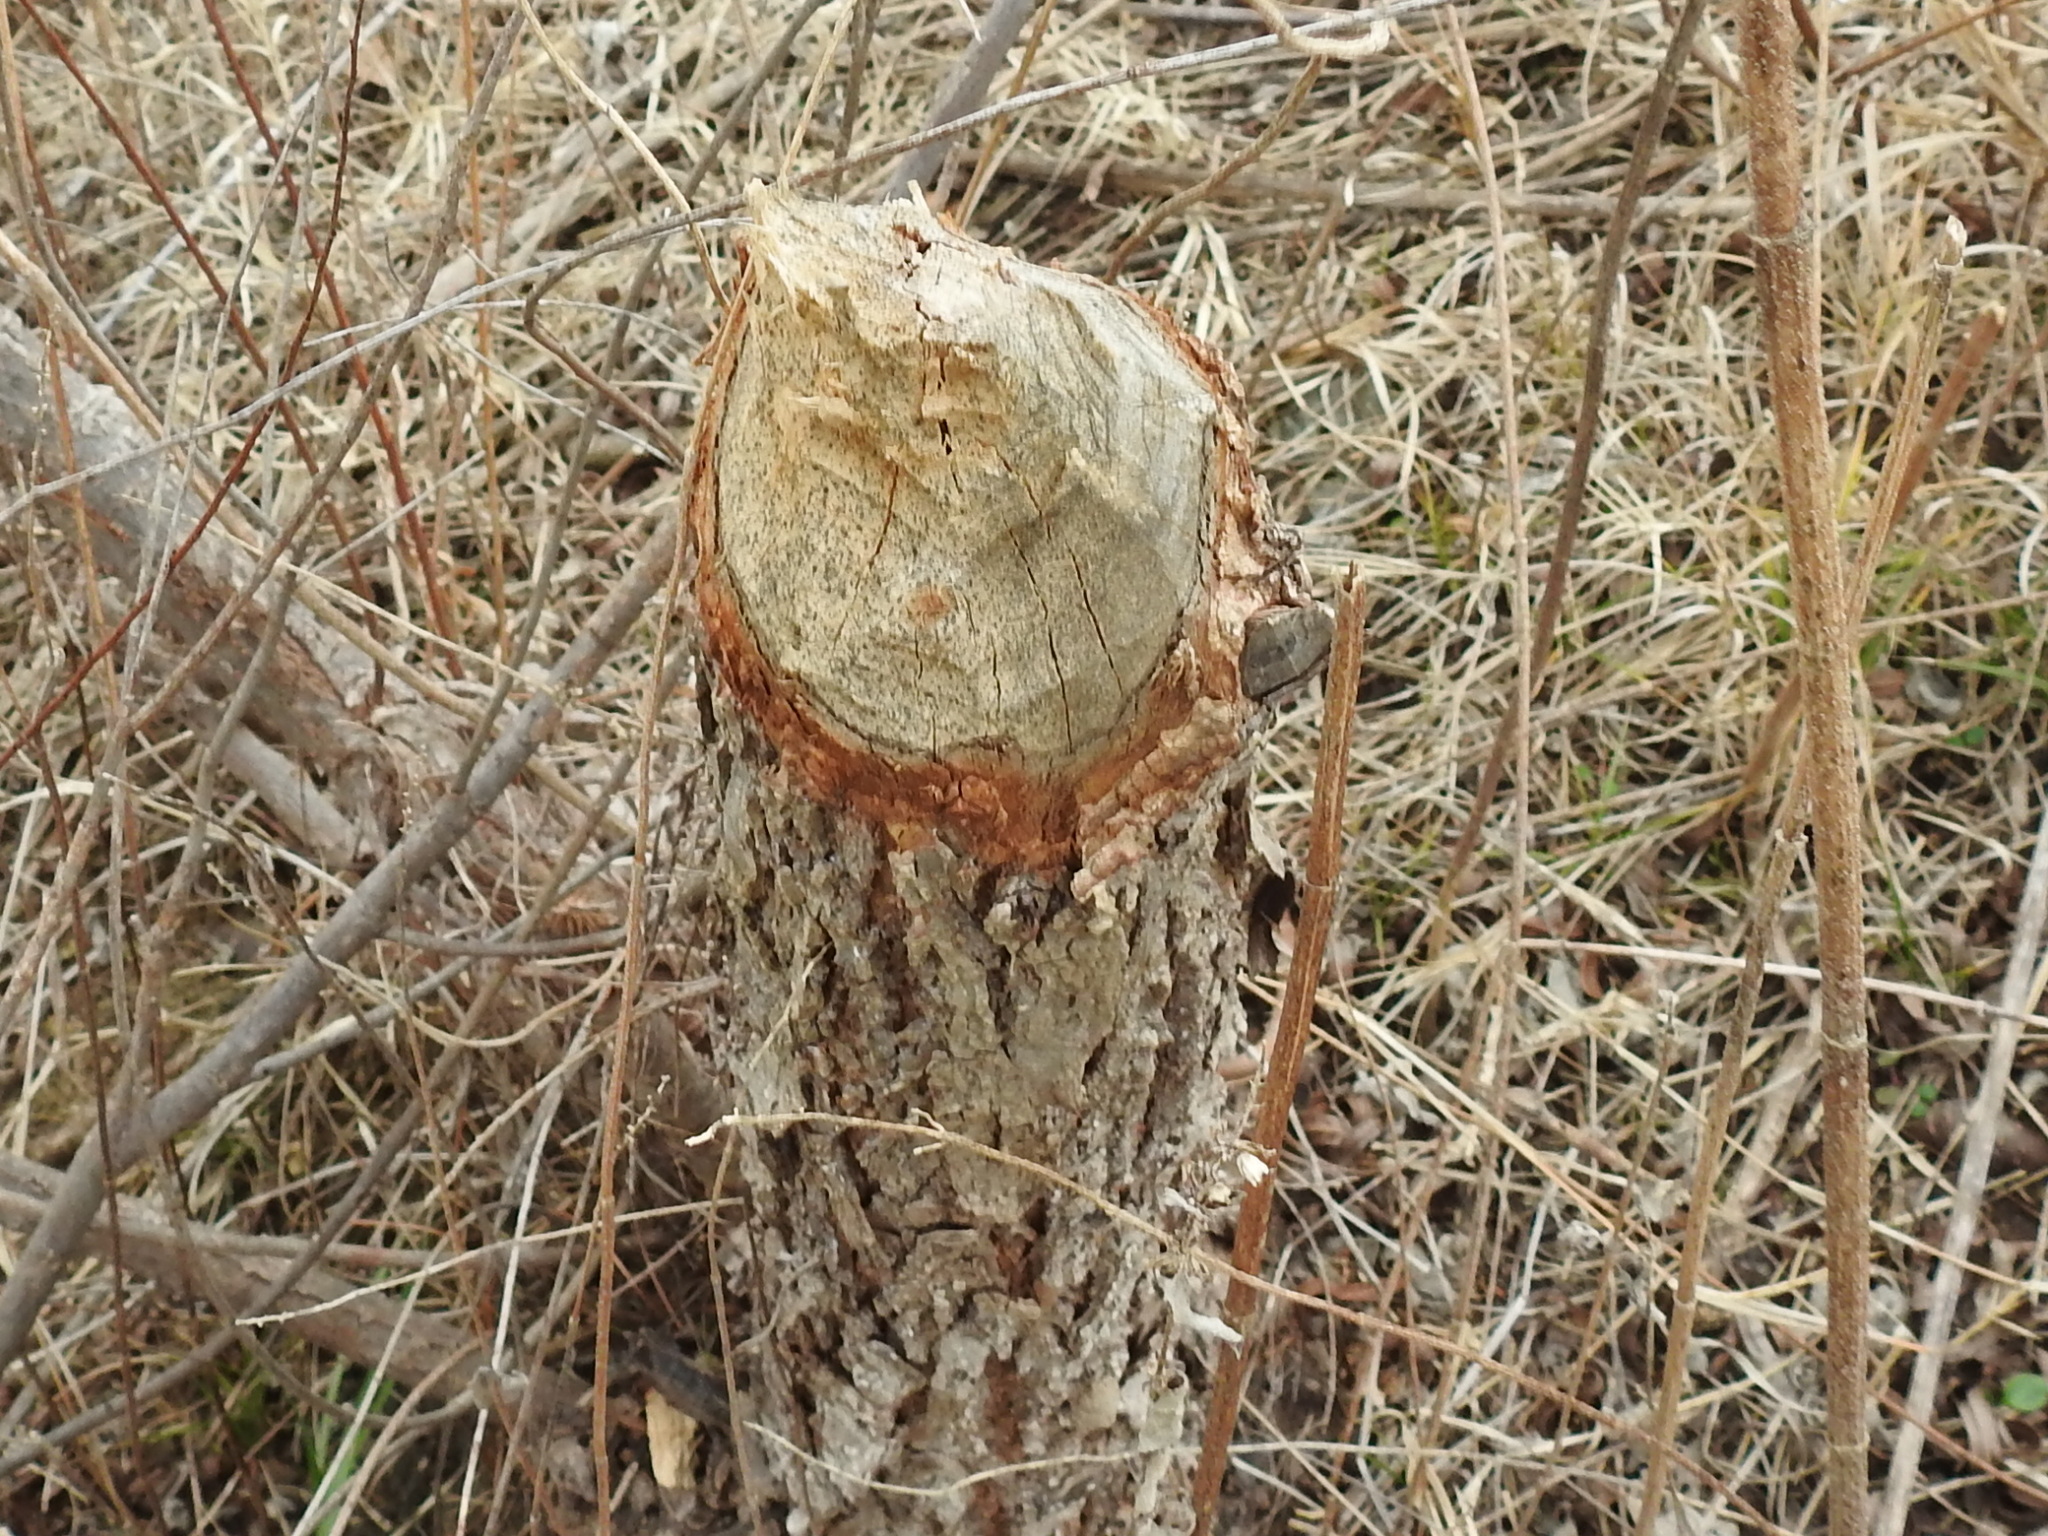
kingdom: Animalia
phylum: Chordata
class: Mammalia
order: Rodentia
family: Castoridae
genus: Castor
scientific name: Castor canadensis
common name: American beaver
